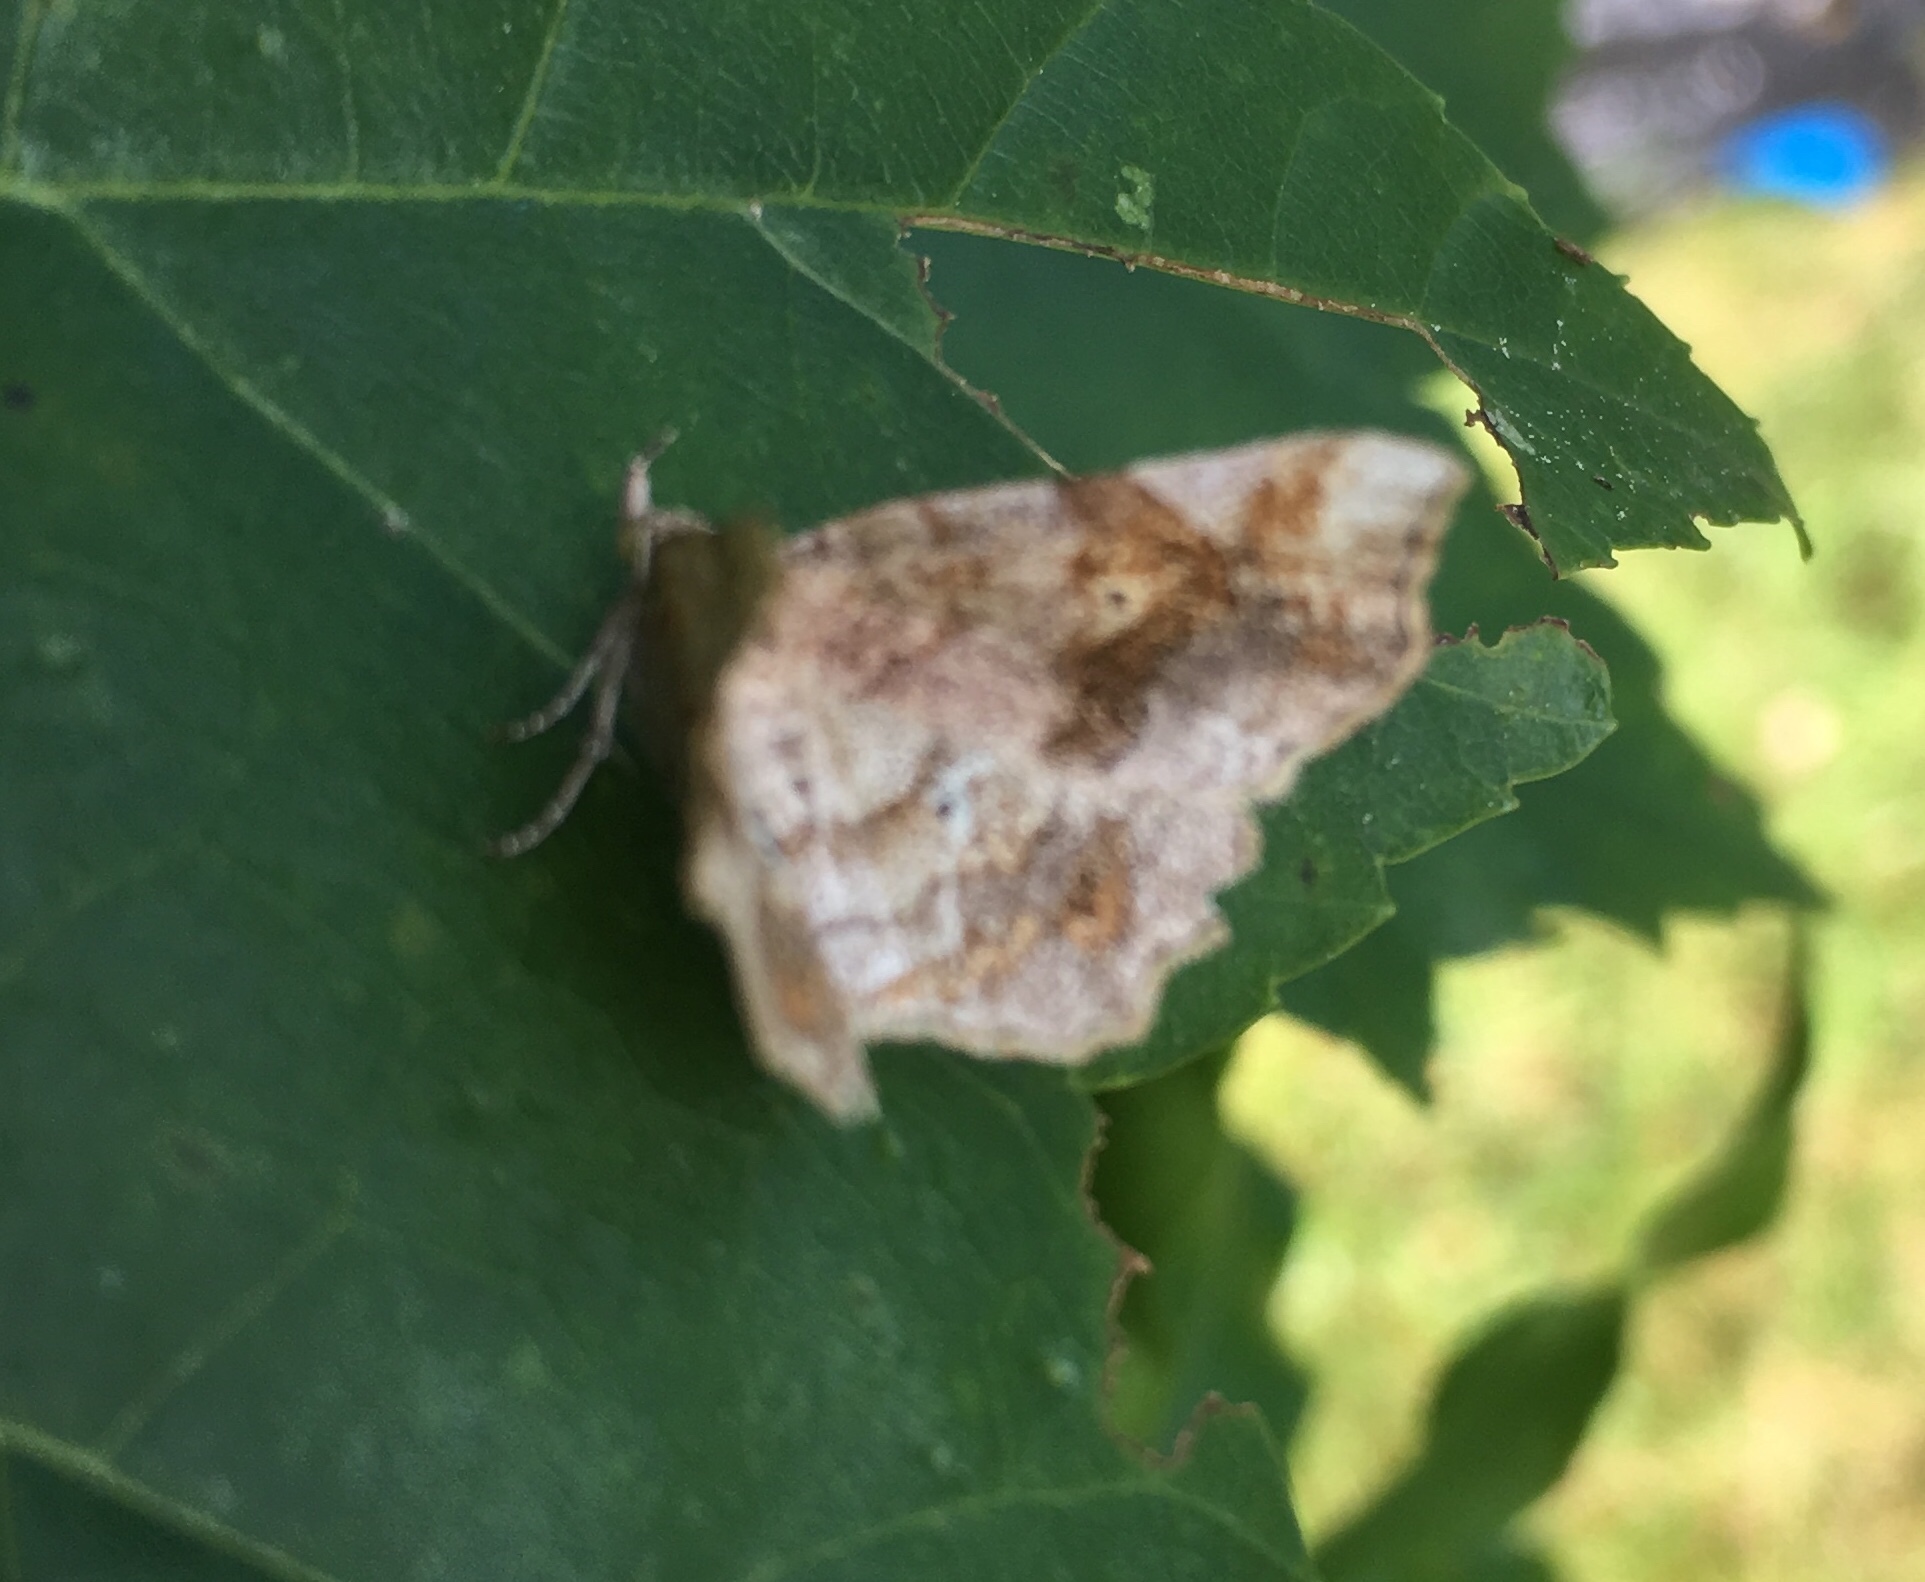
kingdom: Animalia
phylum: Arthropoda
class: Insecta
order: Lepidoptera
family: Erebidae
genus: Pangrapta
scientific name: Pangrapta decoralis
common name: Decorated owlet
